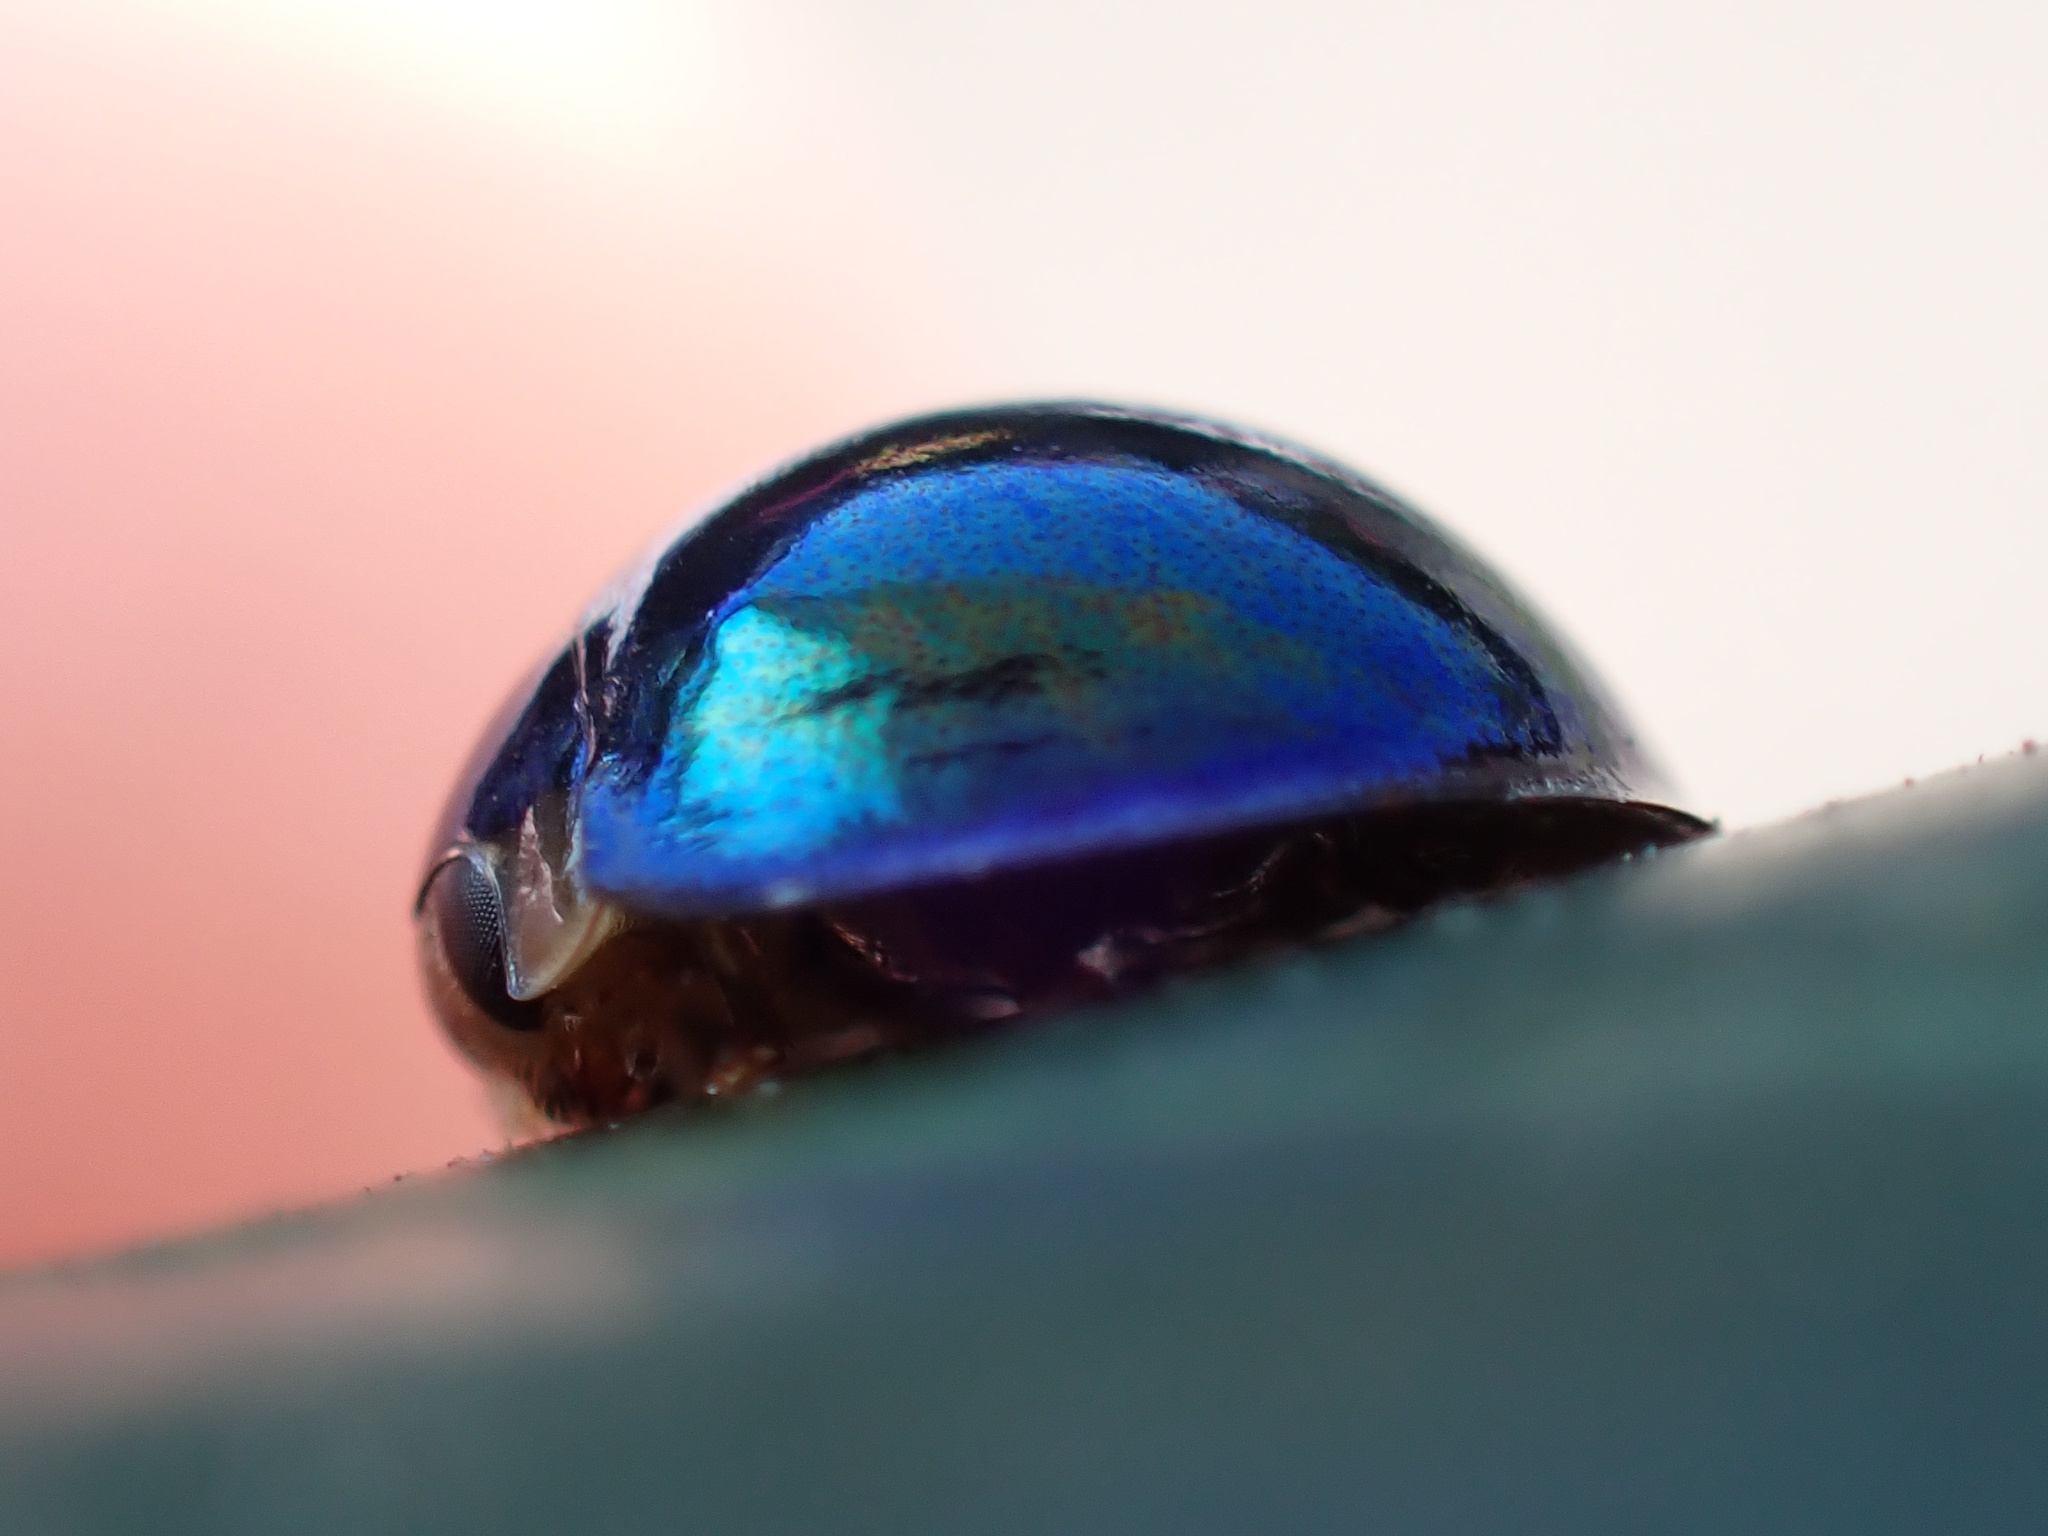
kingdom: Animalia
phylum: Arthropoda
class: Insecta
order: Coleoptera
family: Coccinellidae
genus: Halmus
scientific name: Halmus chalybeus
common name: Steel blue ladybird beetle
